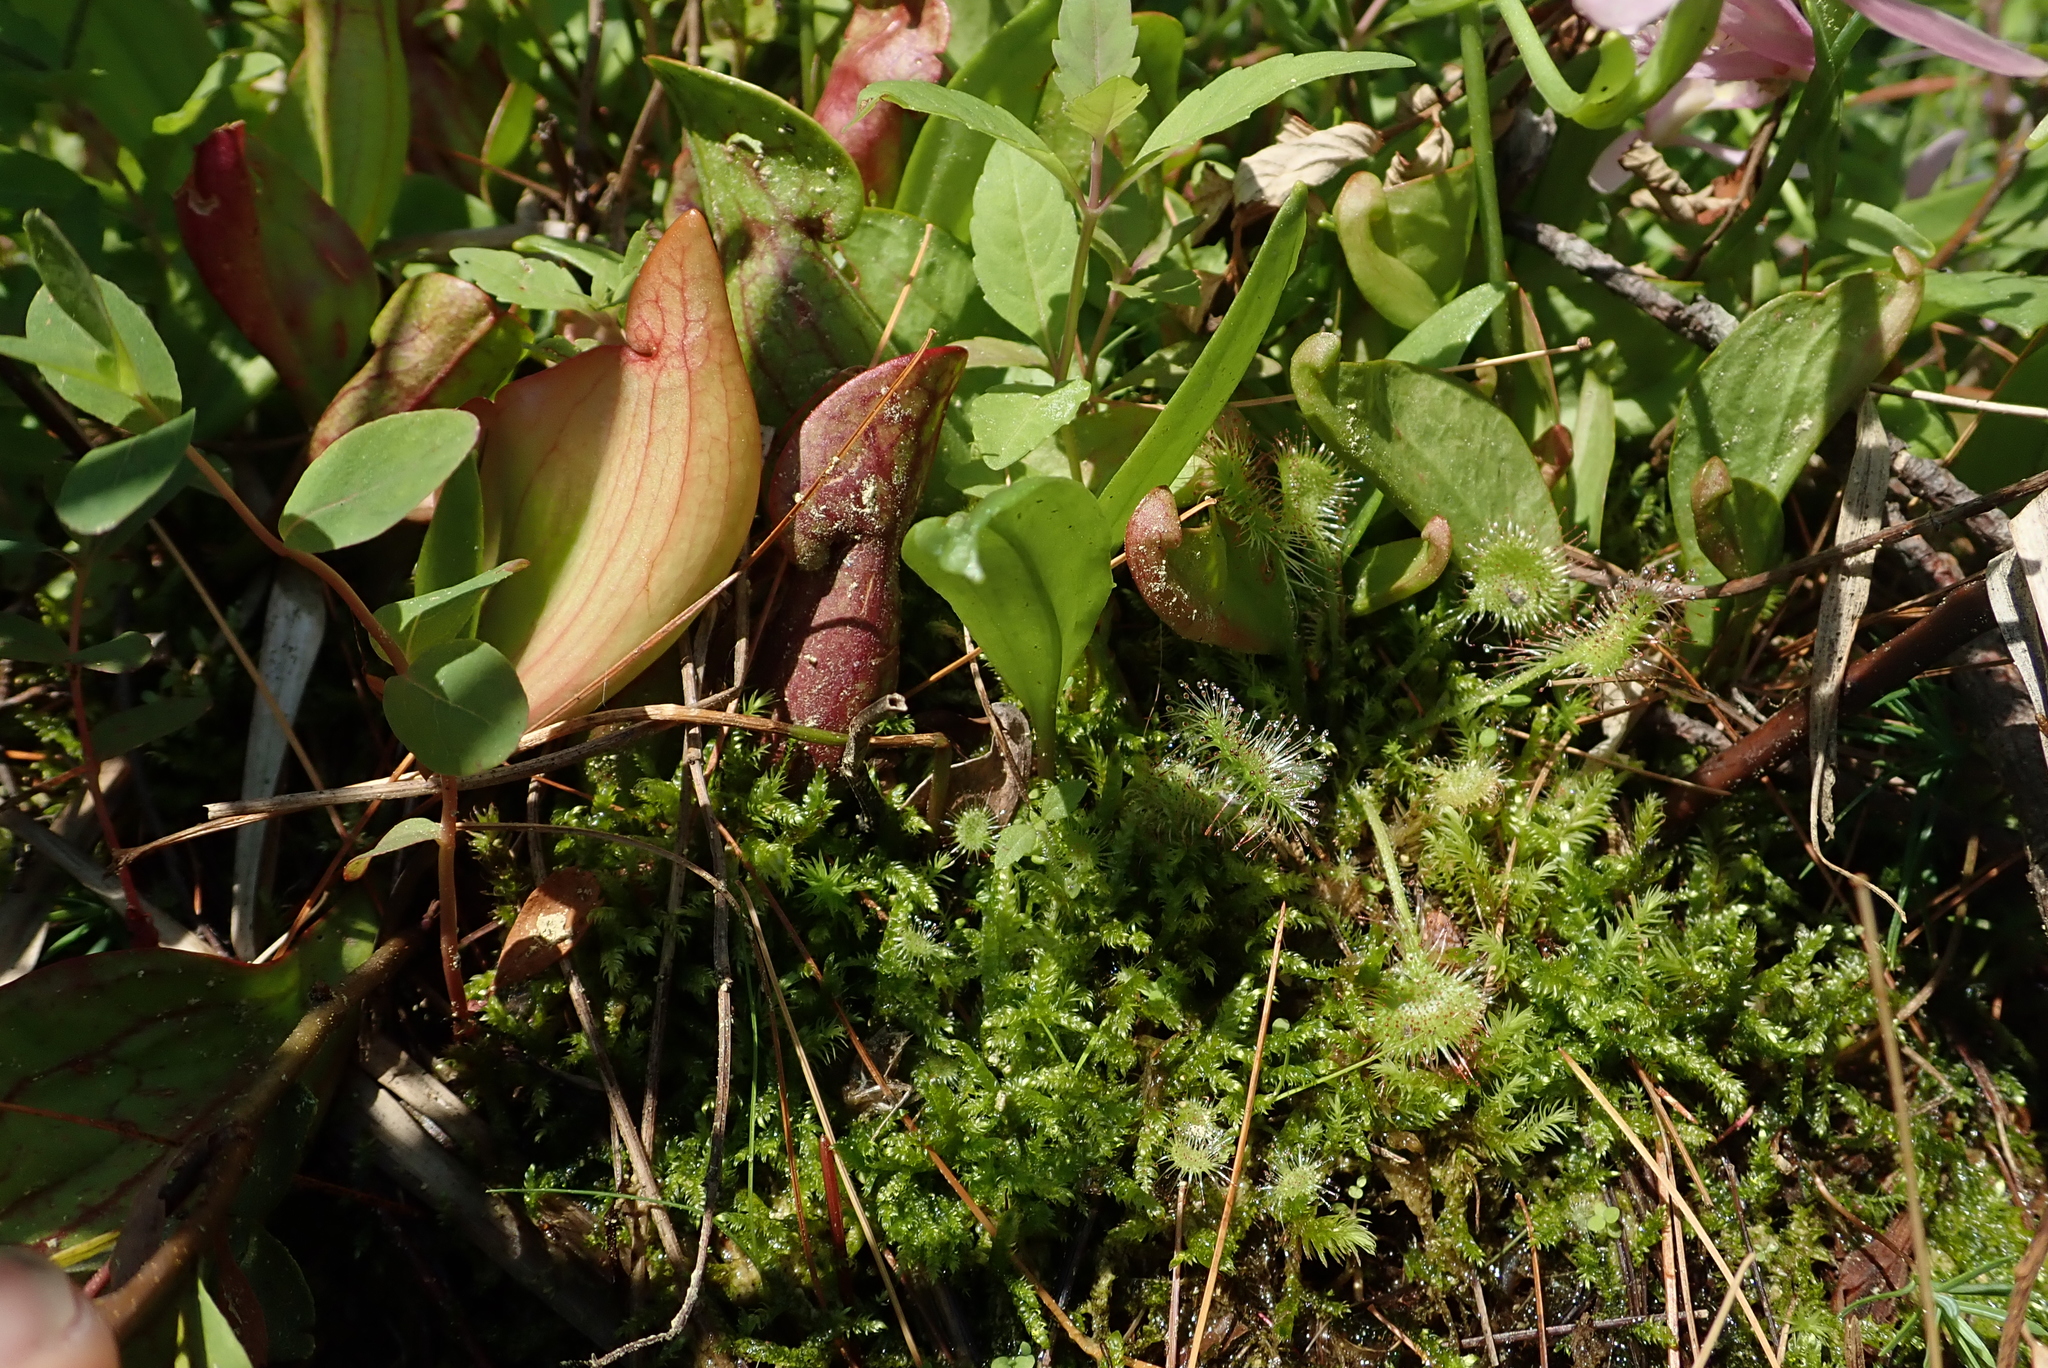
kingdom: Plantae
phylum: Tracheophyta
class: Magnoliopsida
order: Caryophyllales
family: Droseraceae
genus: Drosera
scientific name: Drosera rotundifolia
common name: Round-leaved sundew
